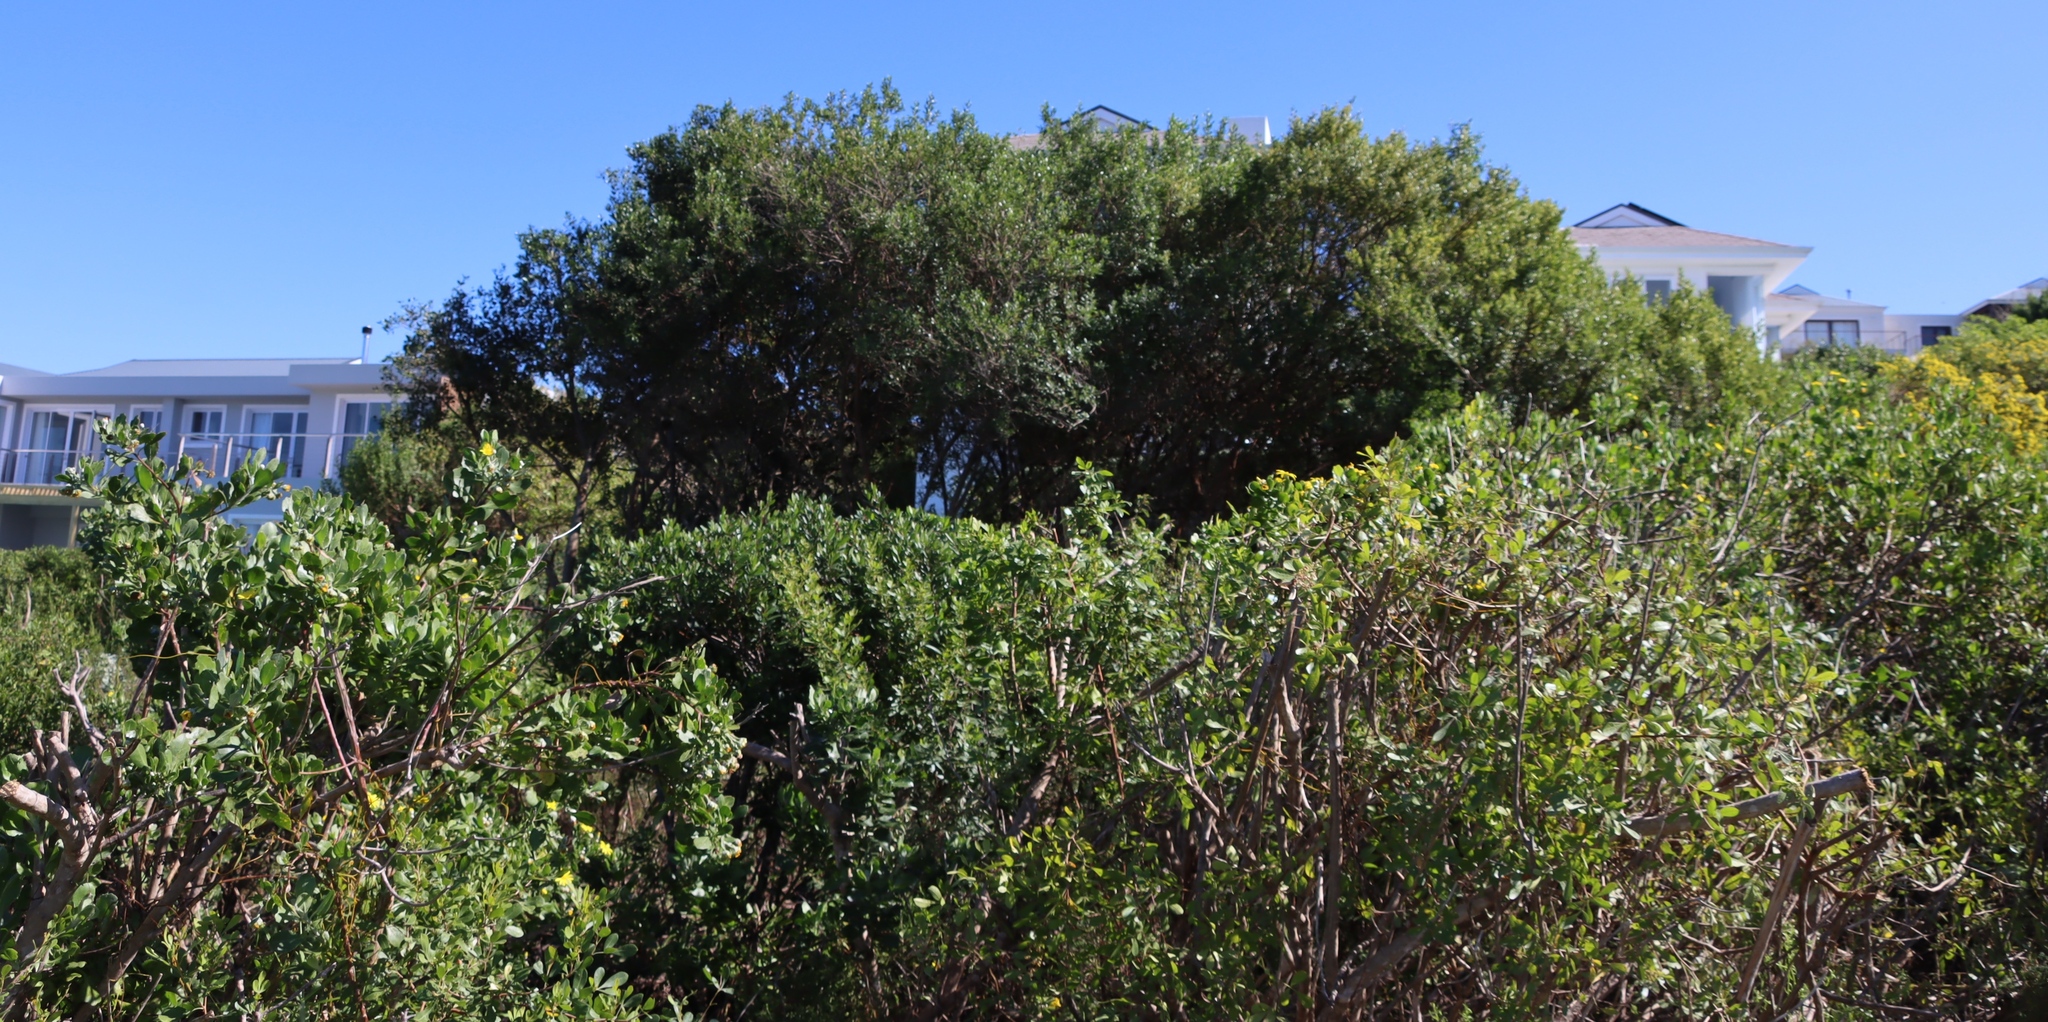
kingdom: Plantae
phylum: Tracheophyta
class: Magnoliopsida
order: Sapindales
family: Anacardiaceae
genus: Searsia
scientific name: Searsia lucida
